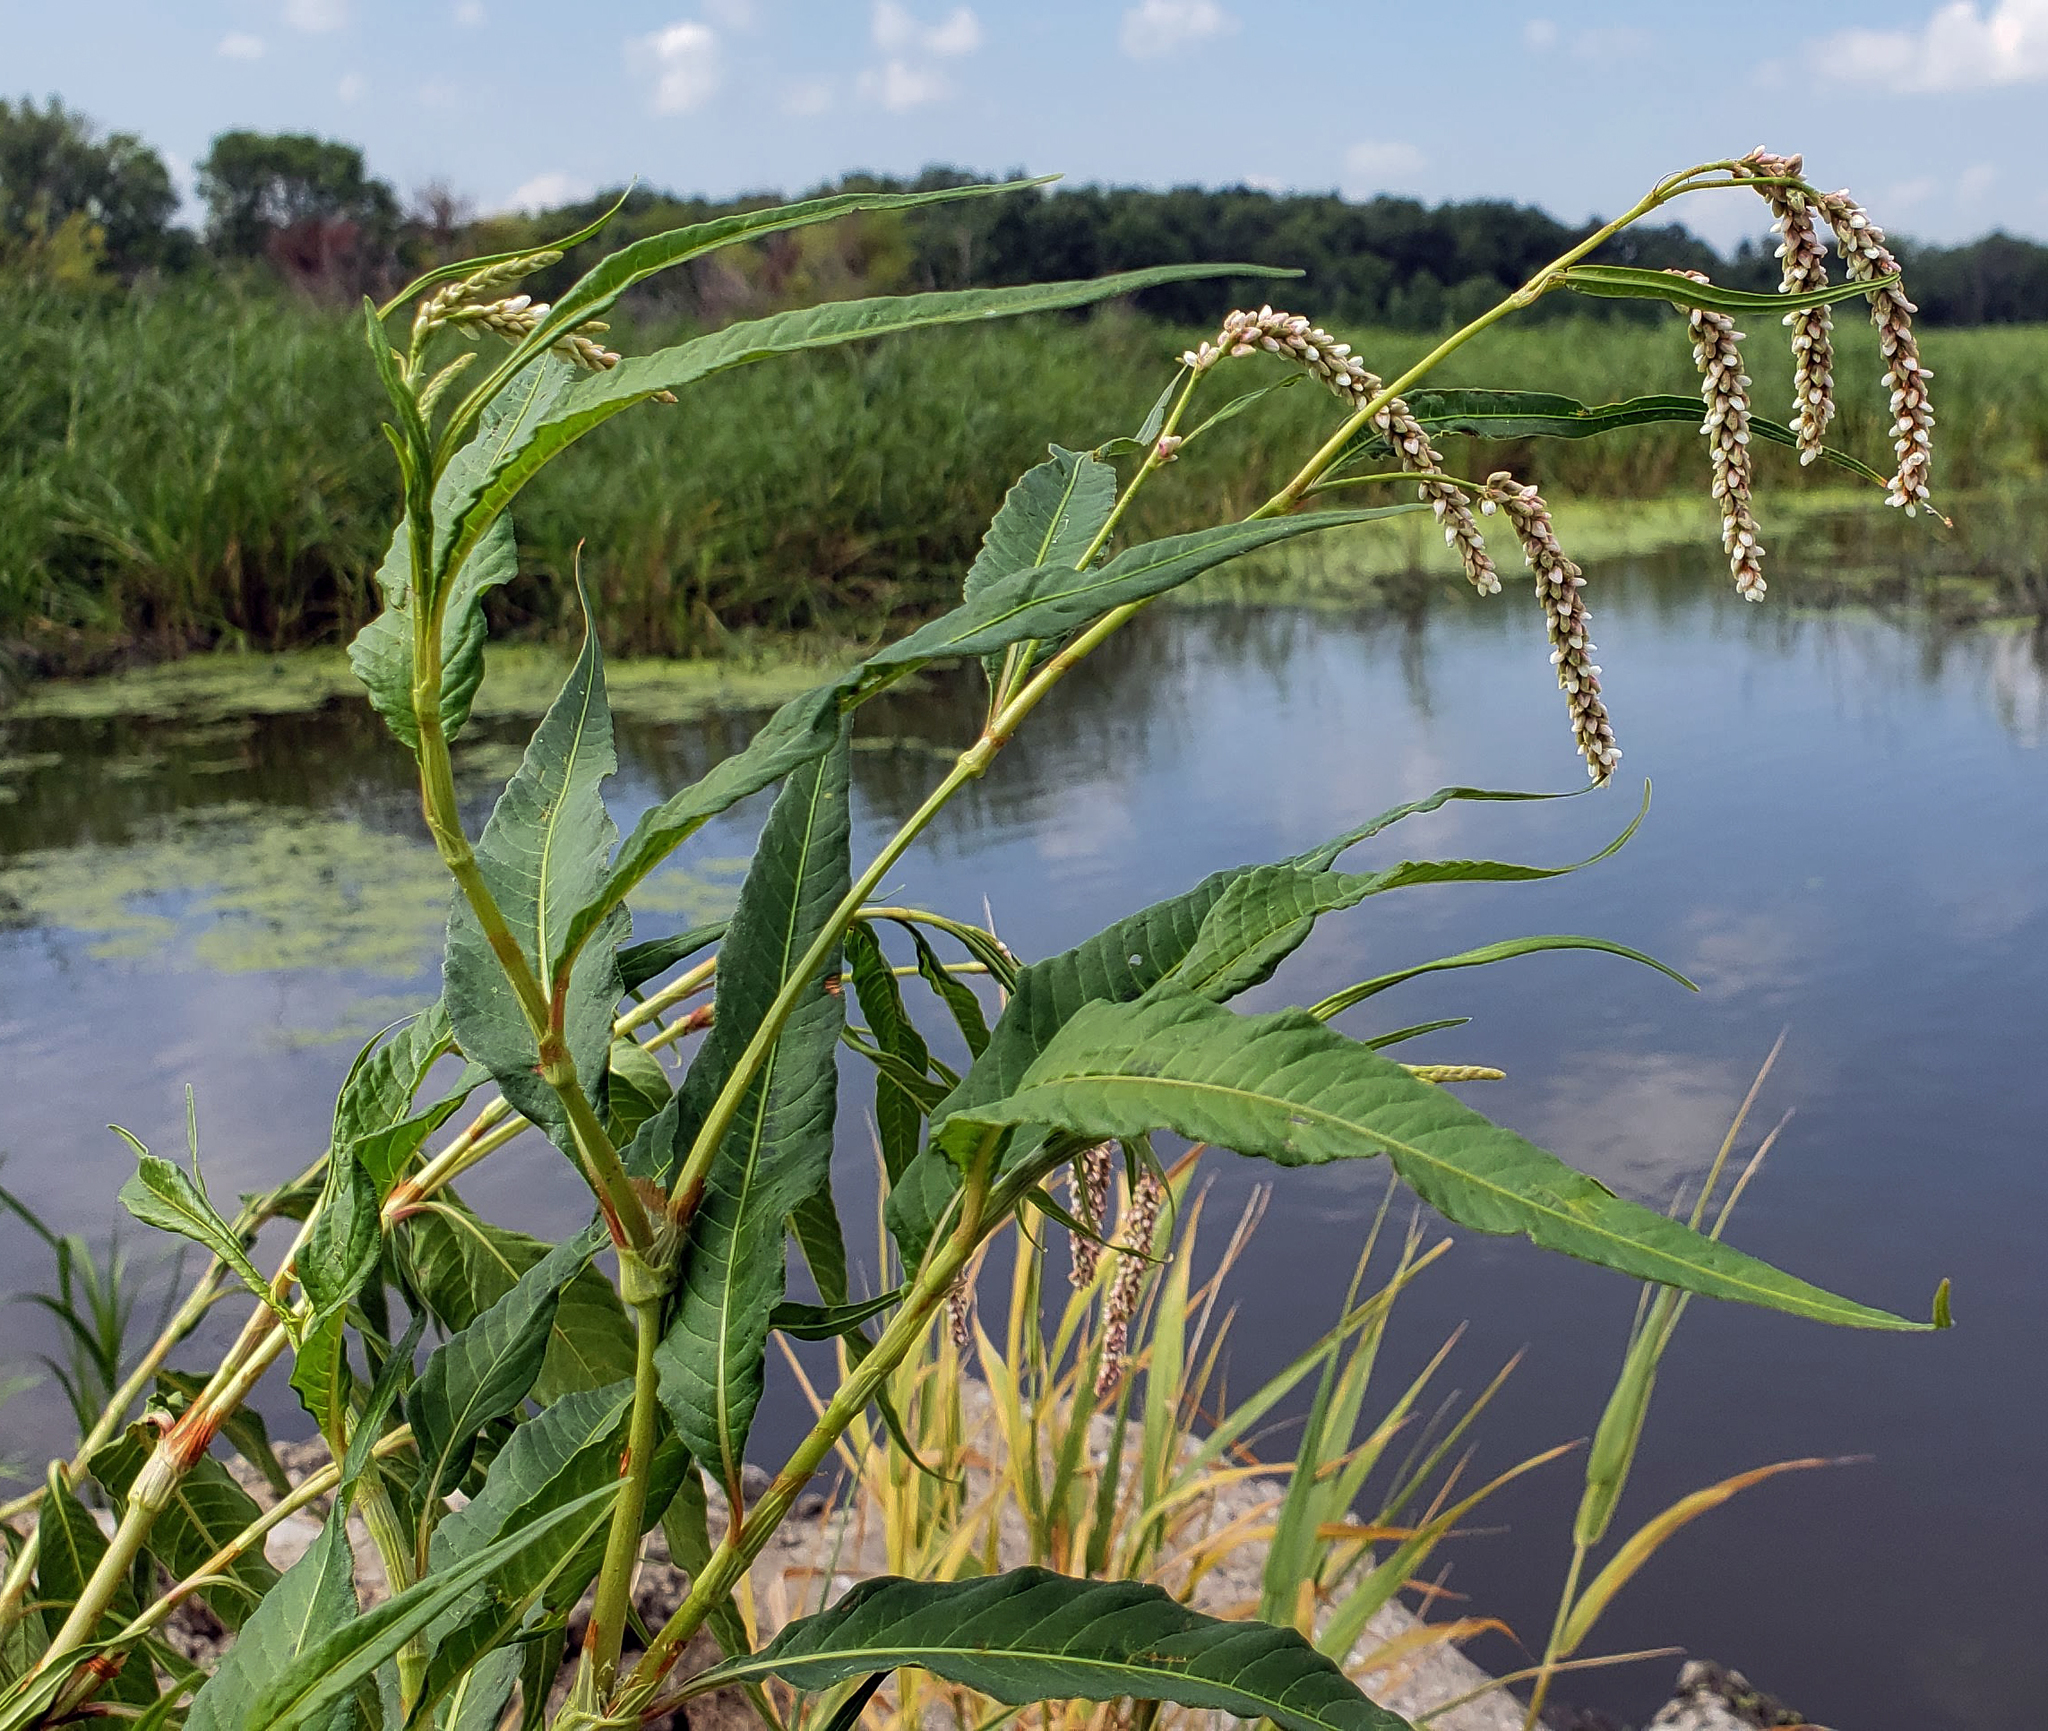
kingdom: Plantae
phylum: Tracheophyta
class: Magnoliopsida
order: Caryophyllales
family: Polygonaceae
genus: Persicaria
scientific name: Persicaria lapathifolia
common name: Curlytop knotweed
